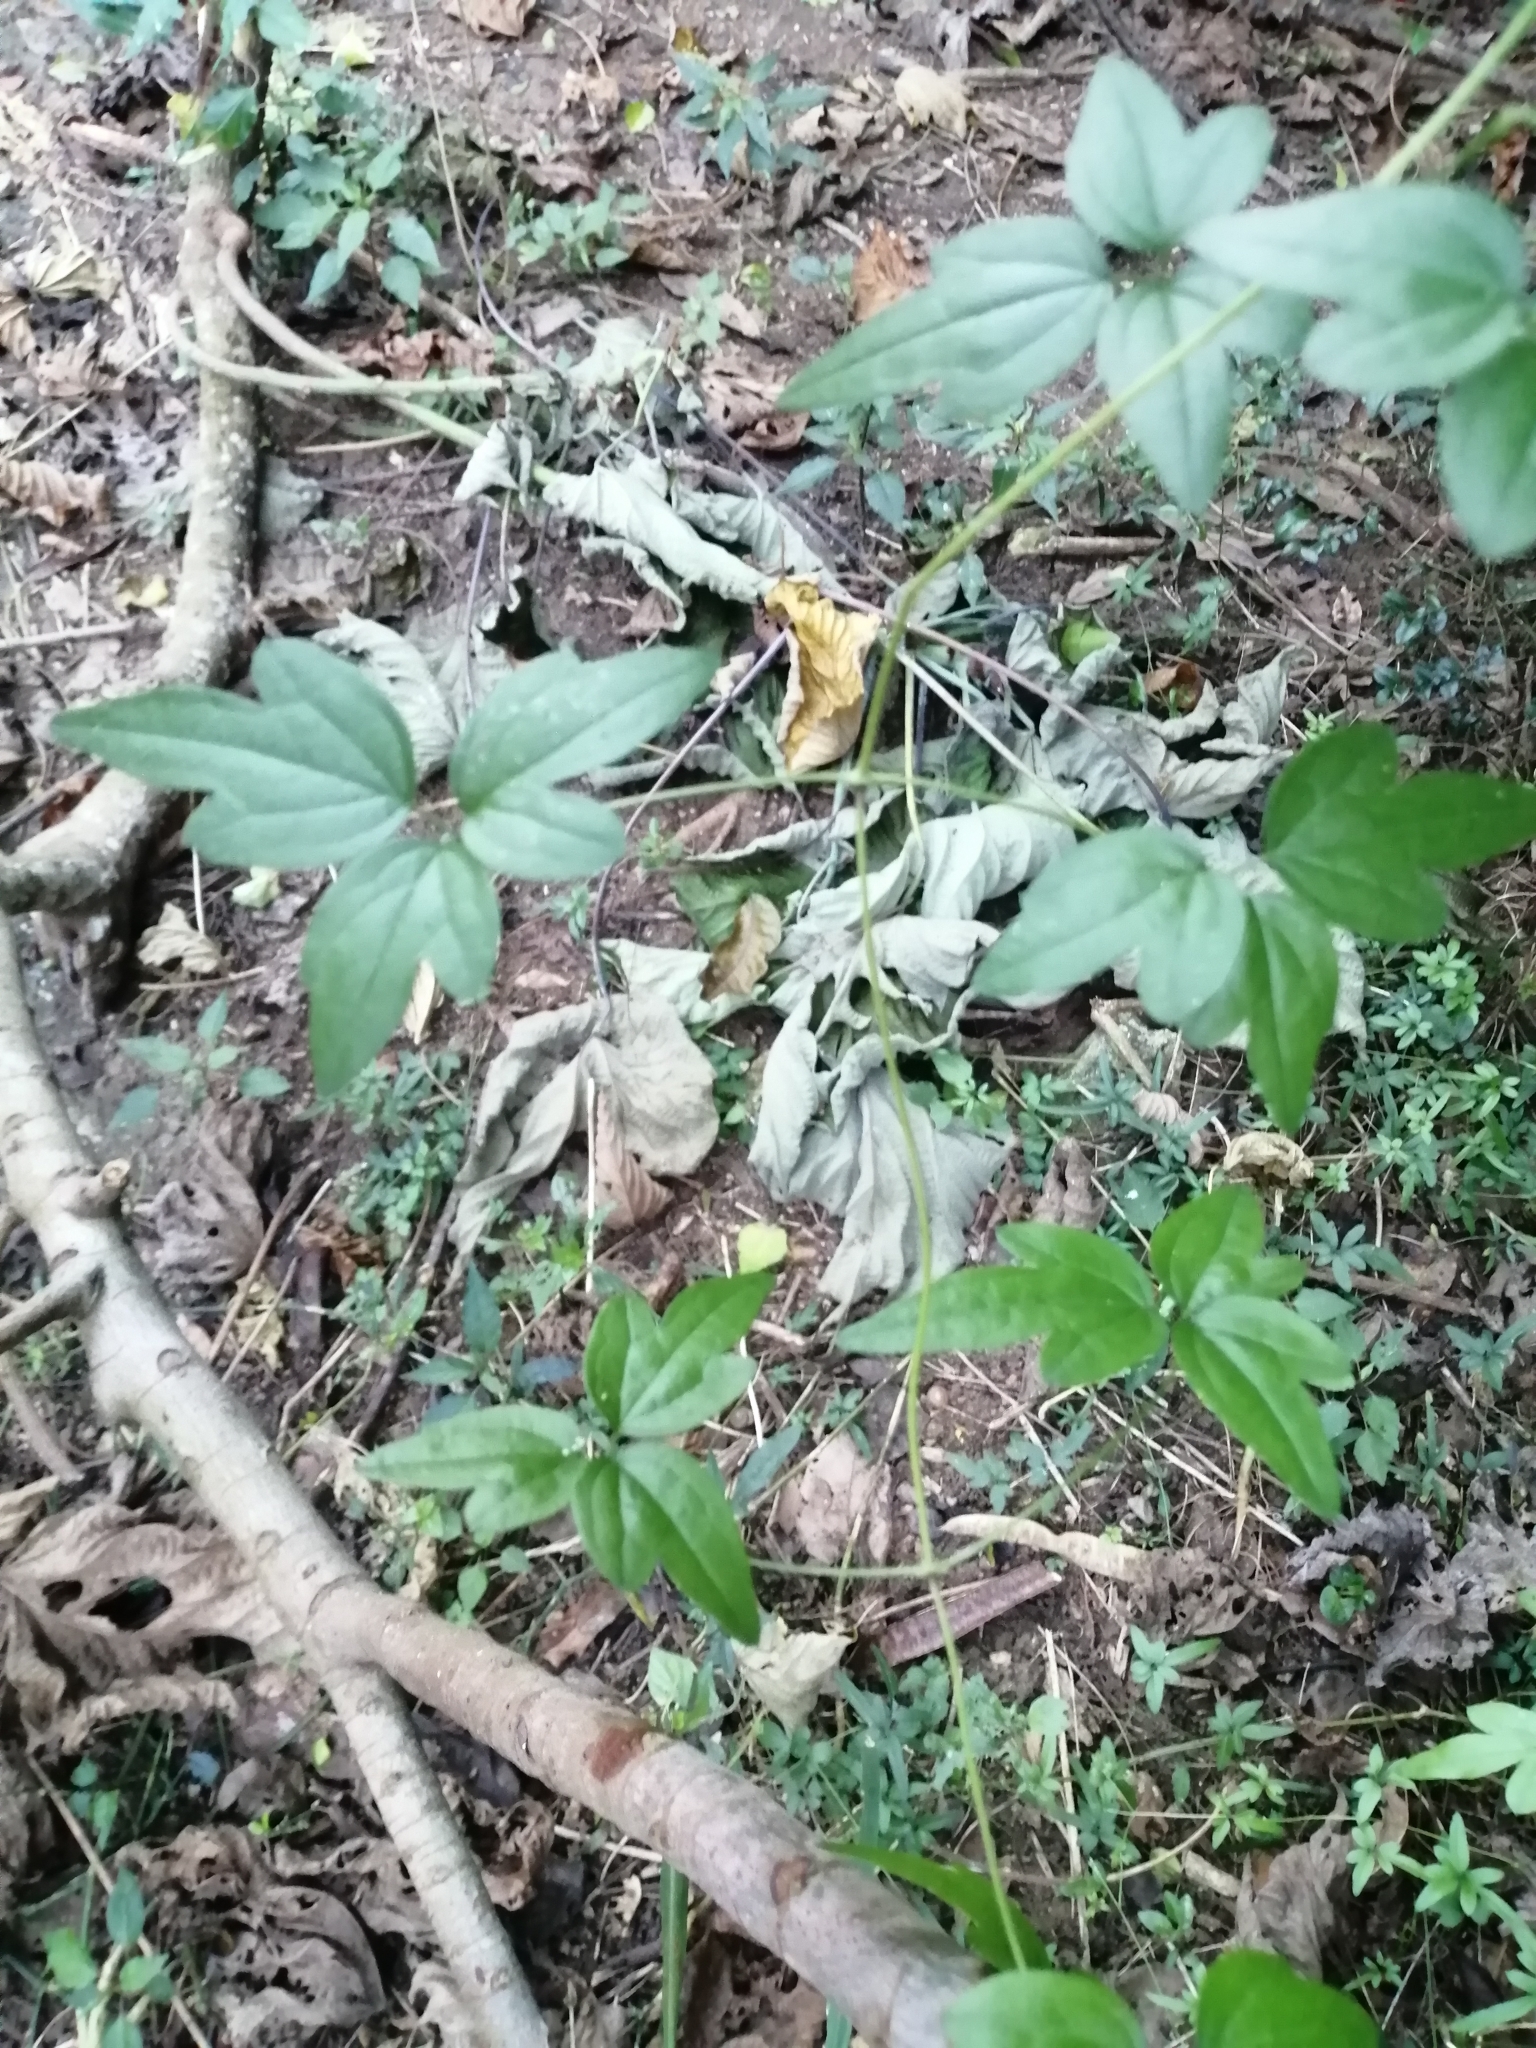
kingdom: Plantae
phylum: Tracheophyta
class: Magnoliopsida
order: Ranunculales
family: Ranunculaceae
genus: Clematis
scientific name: Clematis grata
